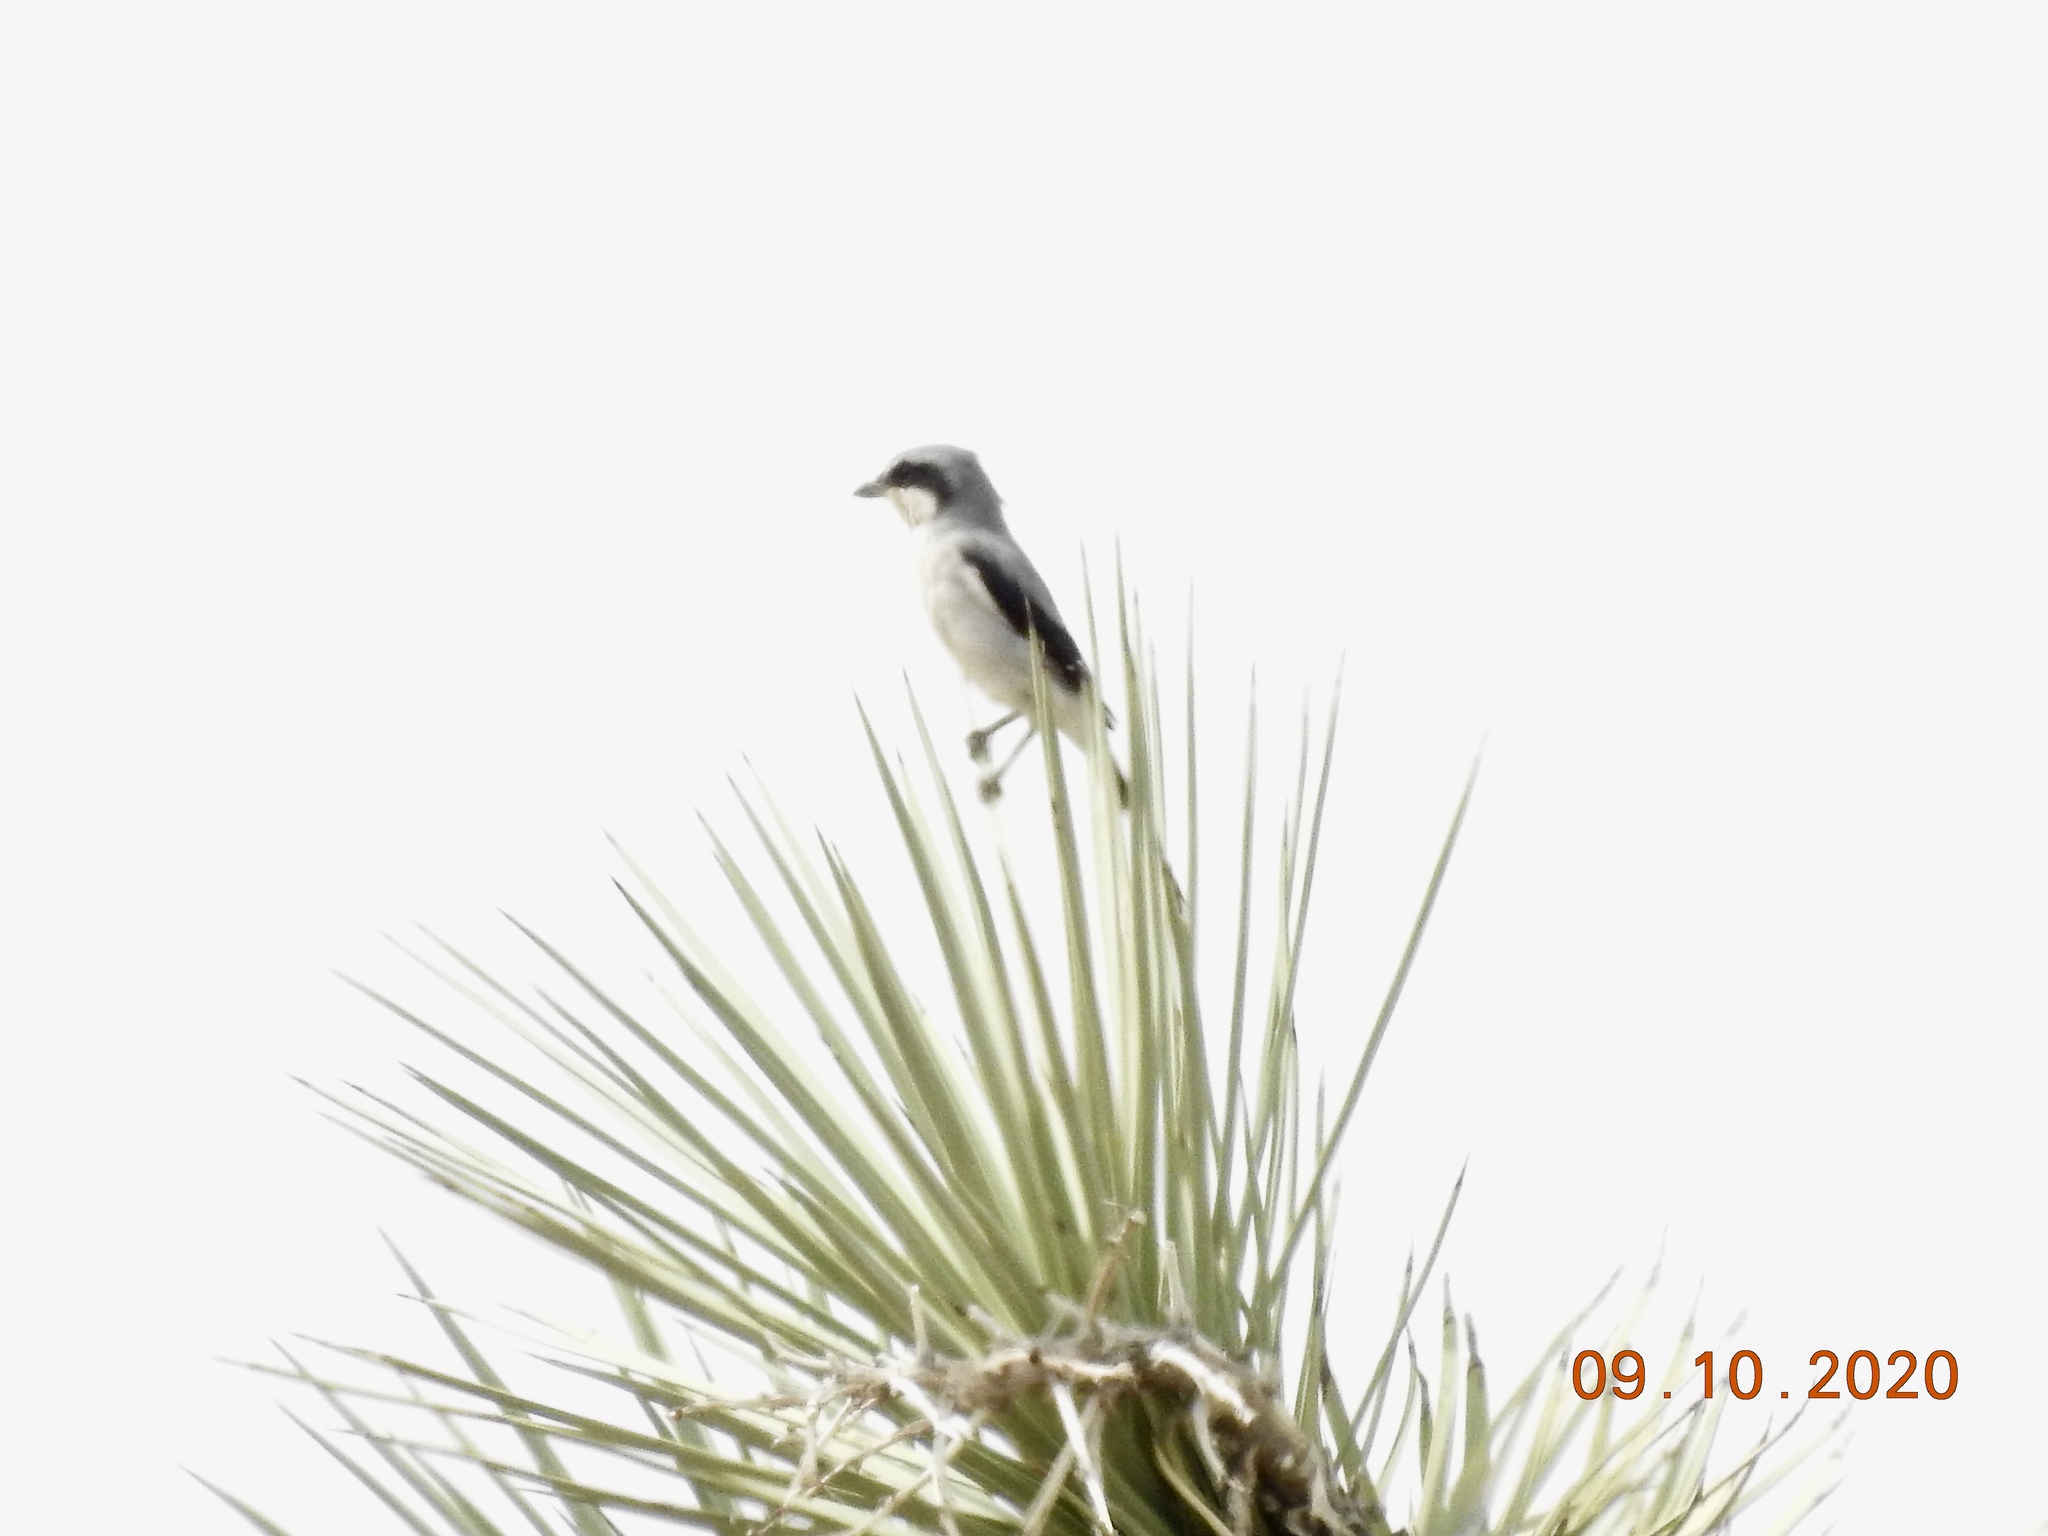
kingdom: Animalia
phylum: Chordata
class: Aves
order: Passeriformes
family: Laniidae
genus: Lanius
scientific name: Lanius ludovicianus
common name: Loggerhead shrike
